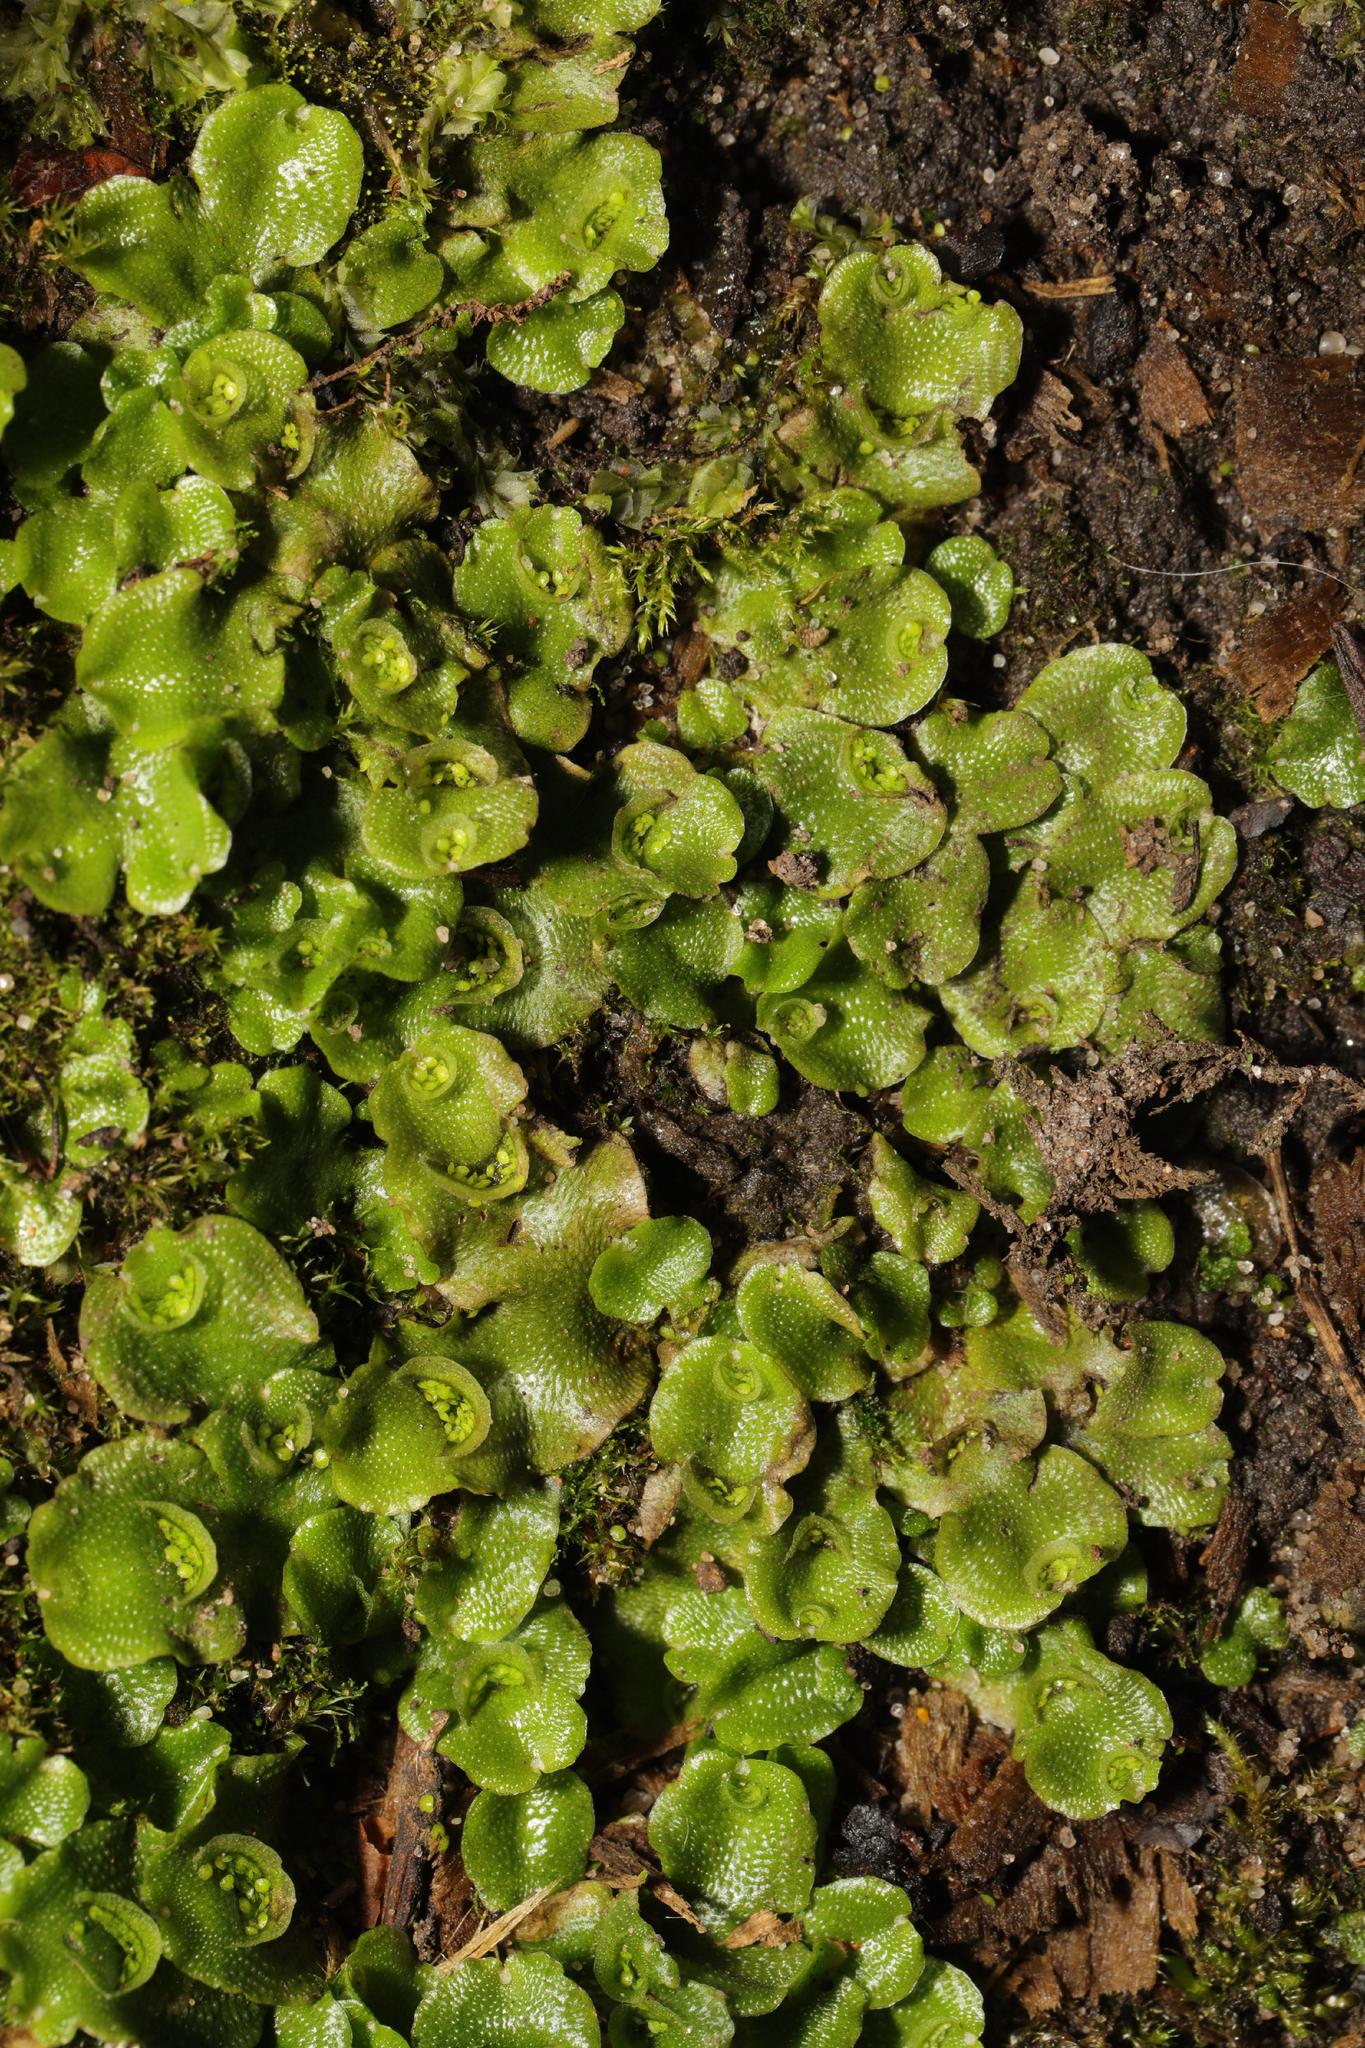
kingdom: Plantae
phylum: Marchantiophyta
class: Marchantiopsida
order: Lunulariales
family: Lunulariaceae
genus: Lunularia
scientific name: Lunularia cruciata
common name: Crescent-cup liverwort
